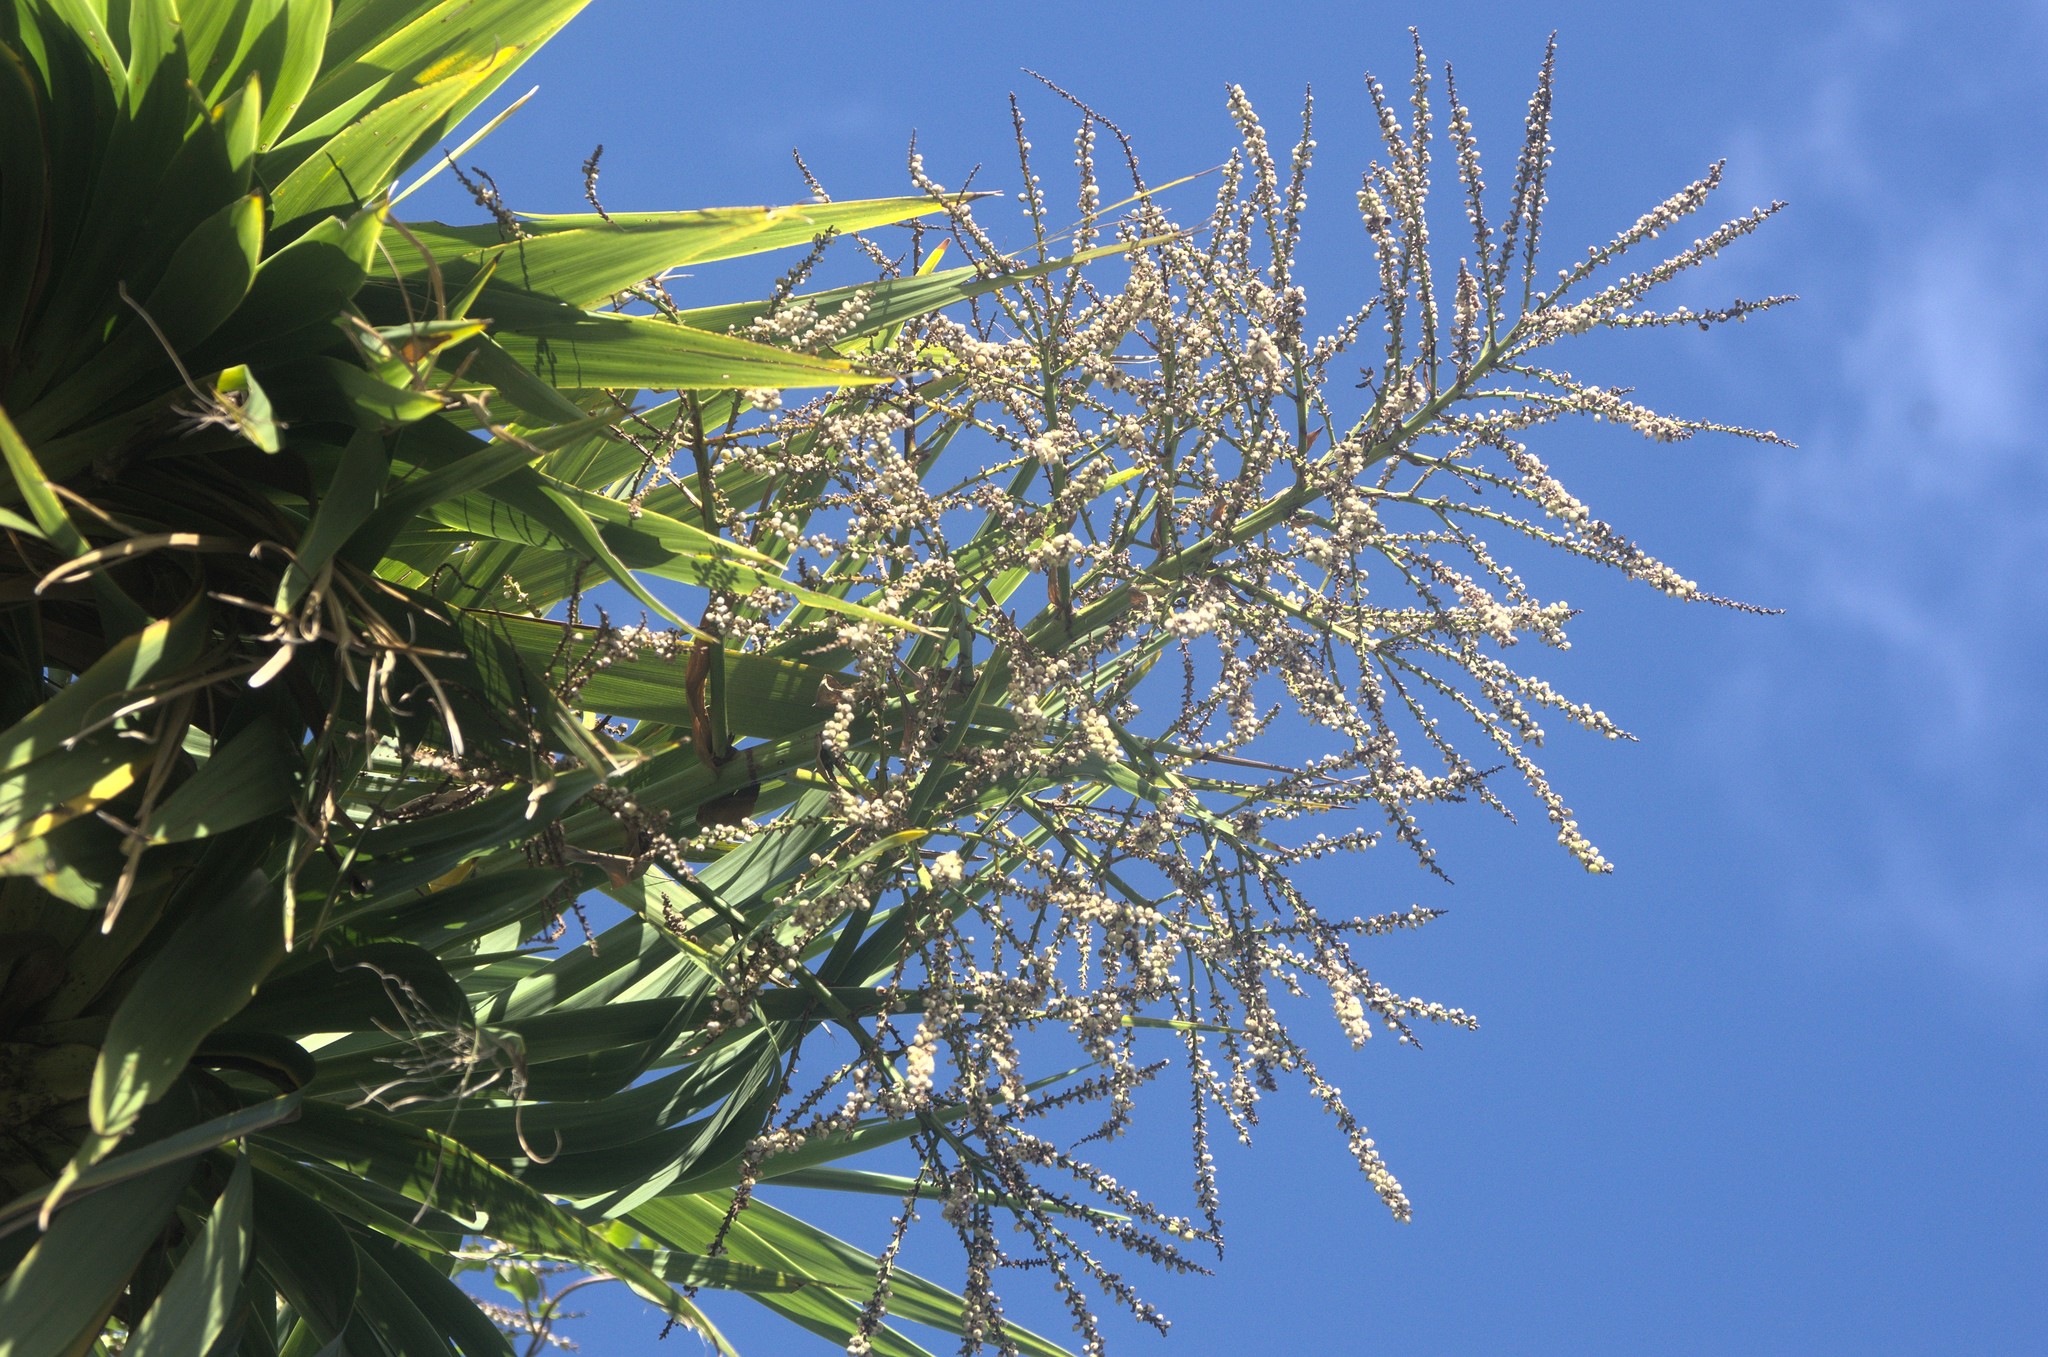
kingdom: Plantae
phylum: Tracheophyta
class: Liliopsida
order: Asparagales
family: Asparagaceae
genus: Cordyline
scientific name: Cordyline australis
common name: Cabbage-palm
